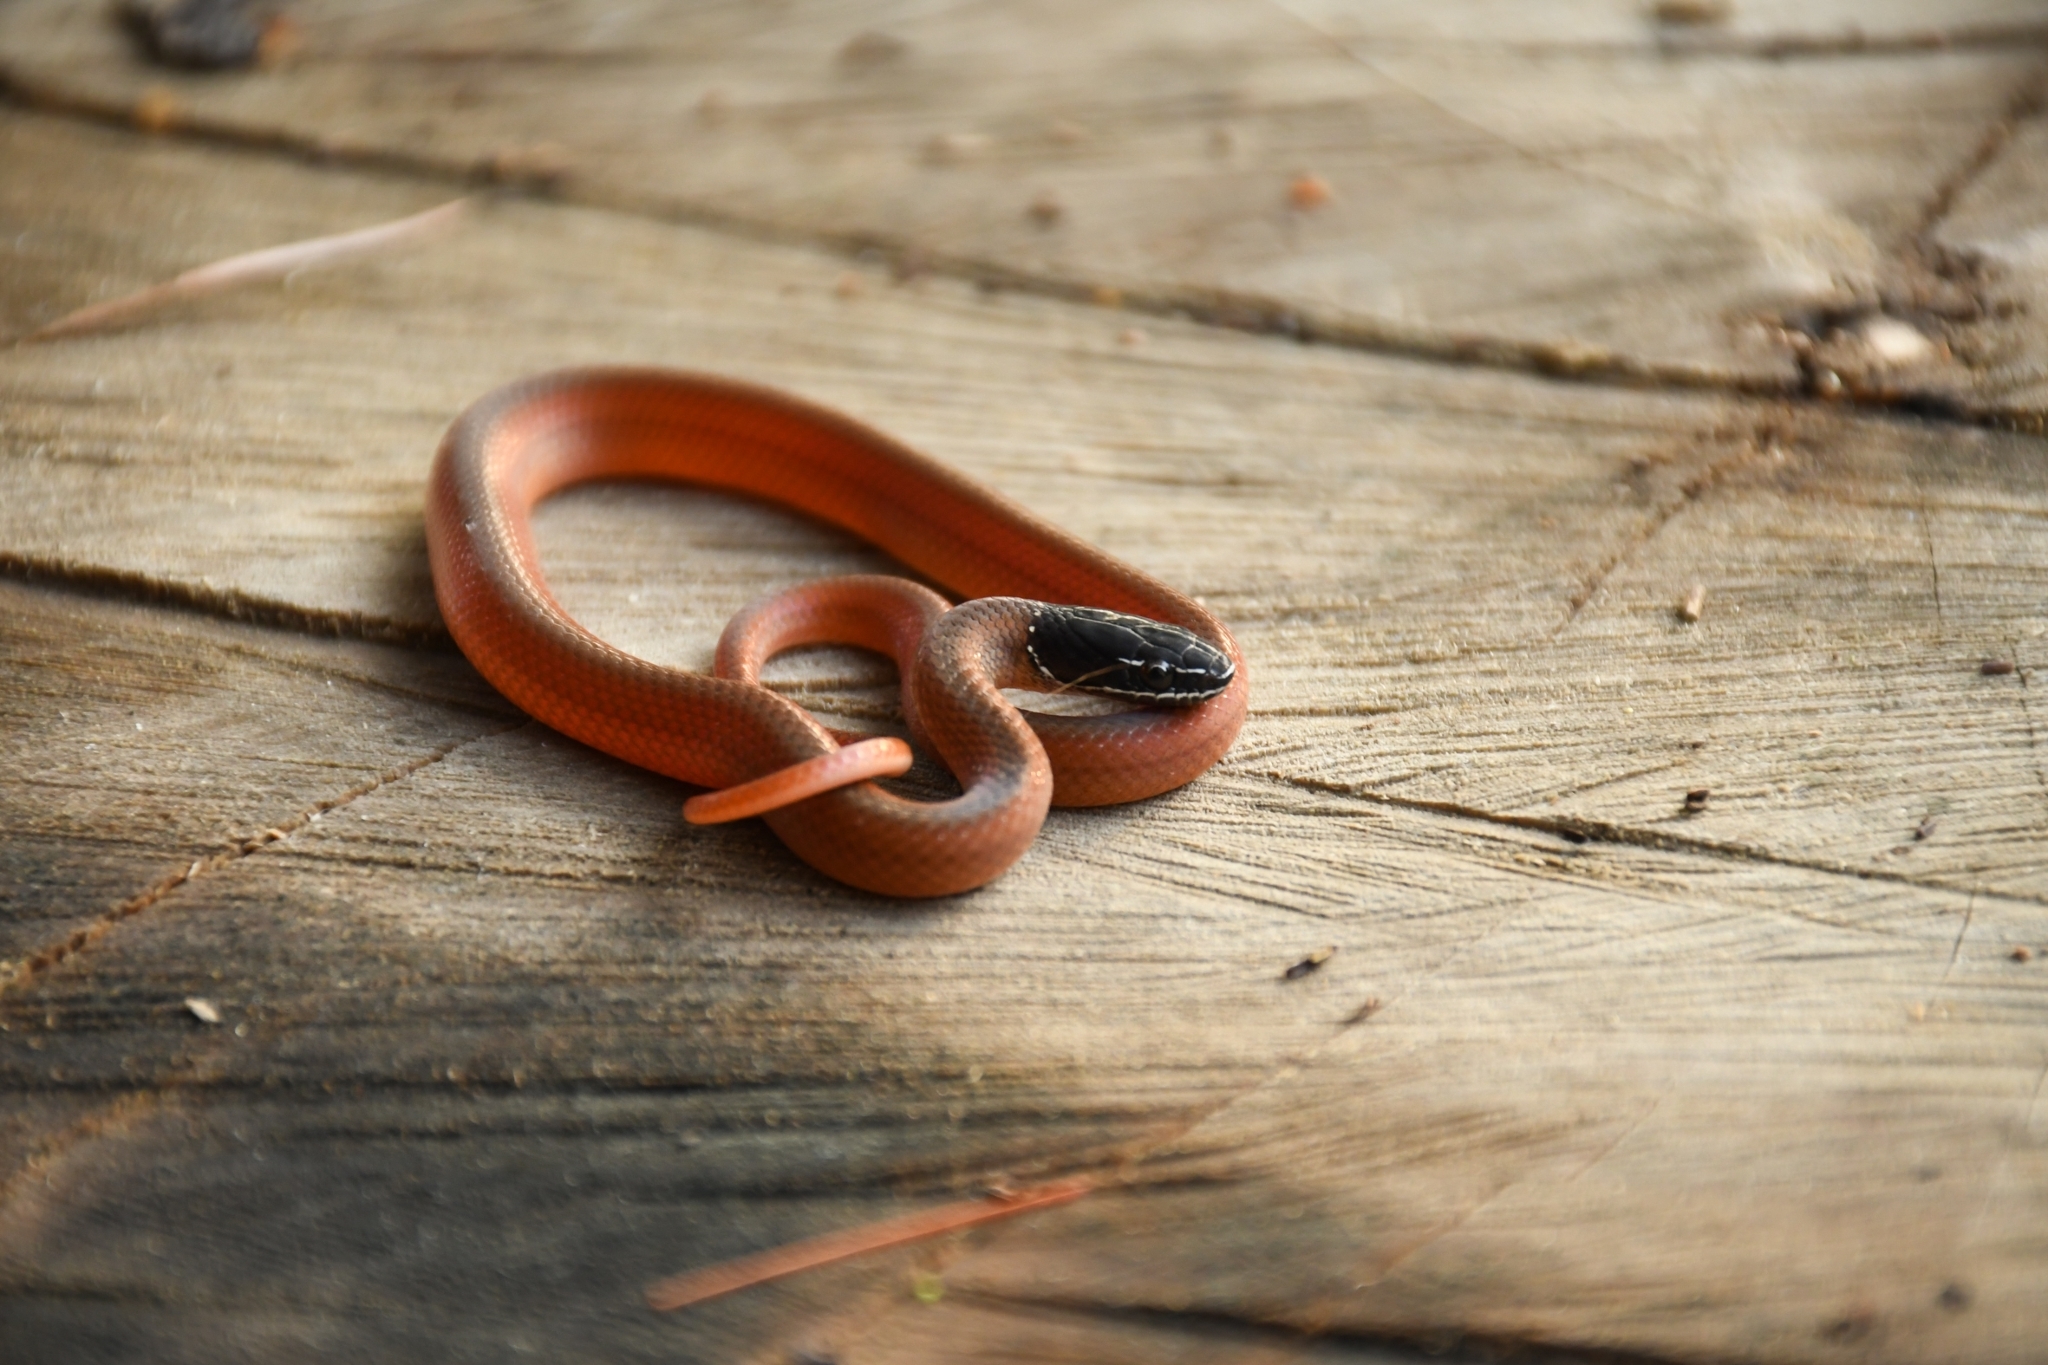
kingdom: Animalia
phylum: Chordata
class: Squamata
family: Colubridae
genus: Rhadinaea
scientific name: Rhadinaea laureata
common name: Crowned graceful brown snake
